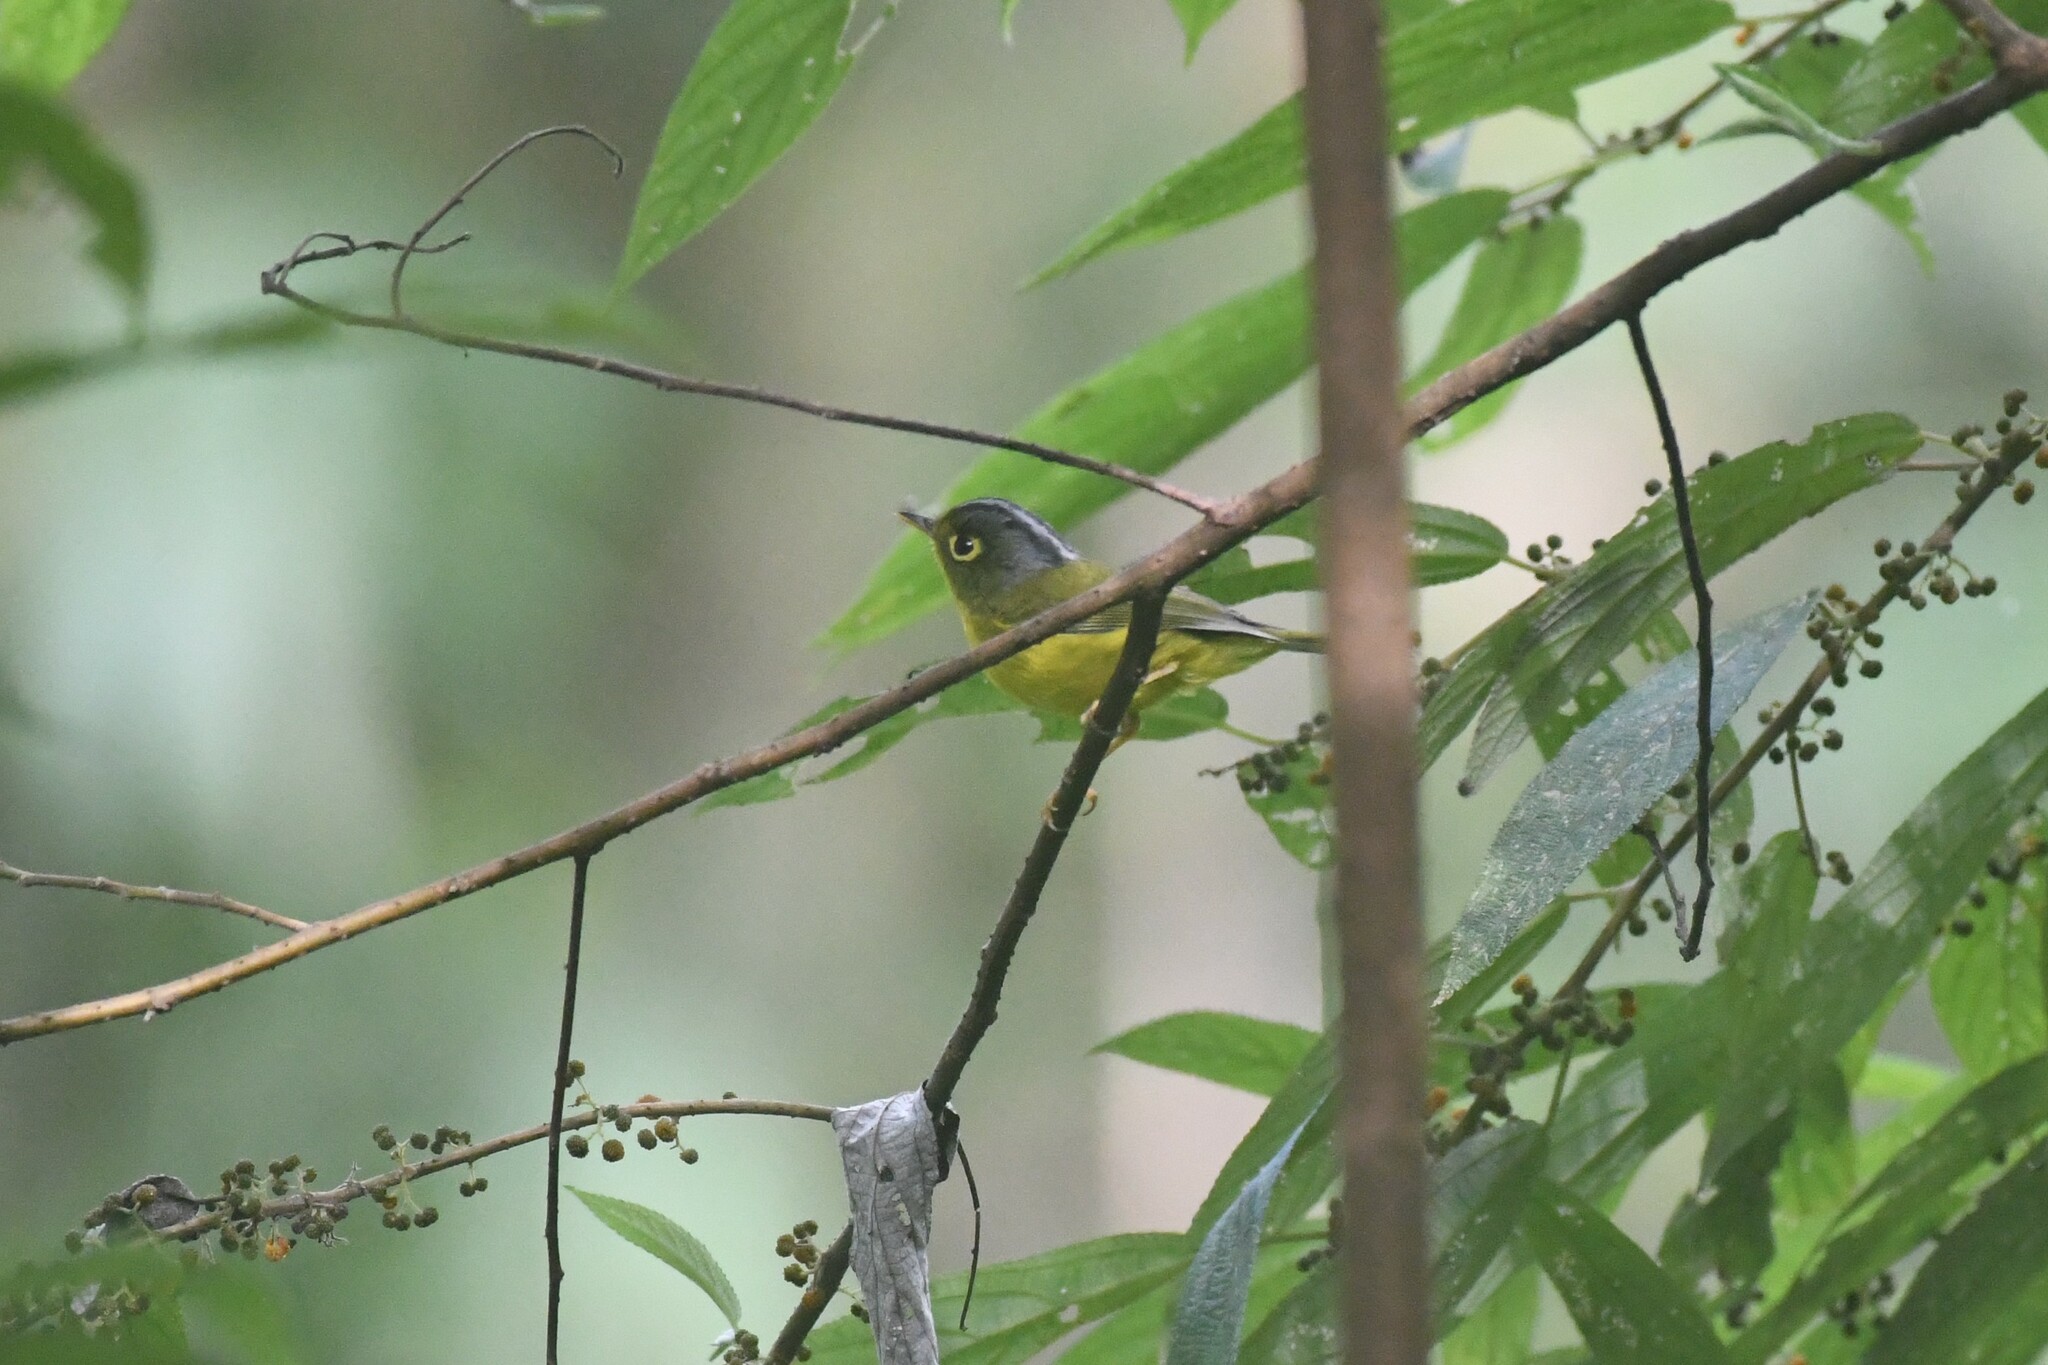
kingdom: Animalia
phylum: Chordata
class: Aves
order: Passeriformes
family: Phylloscopidae
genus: Seicercus
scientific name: Seicercus affinis
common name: White-spectacled warbler
